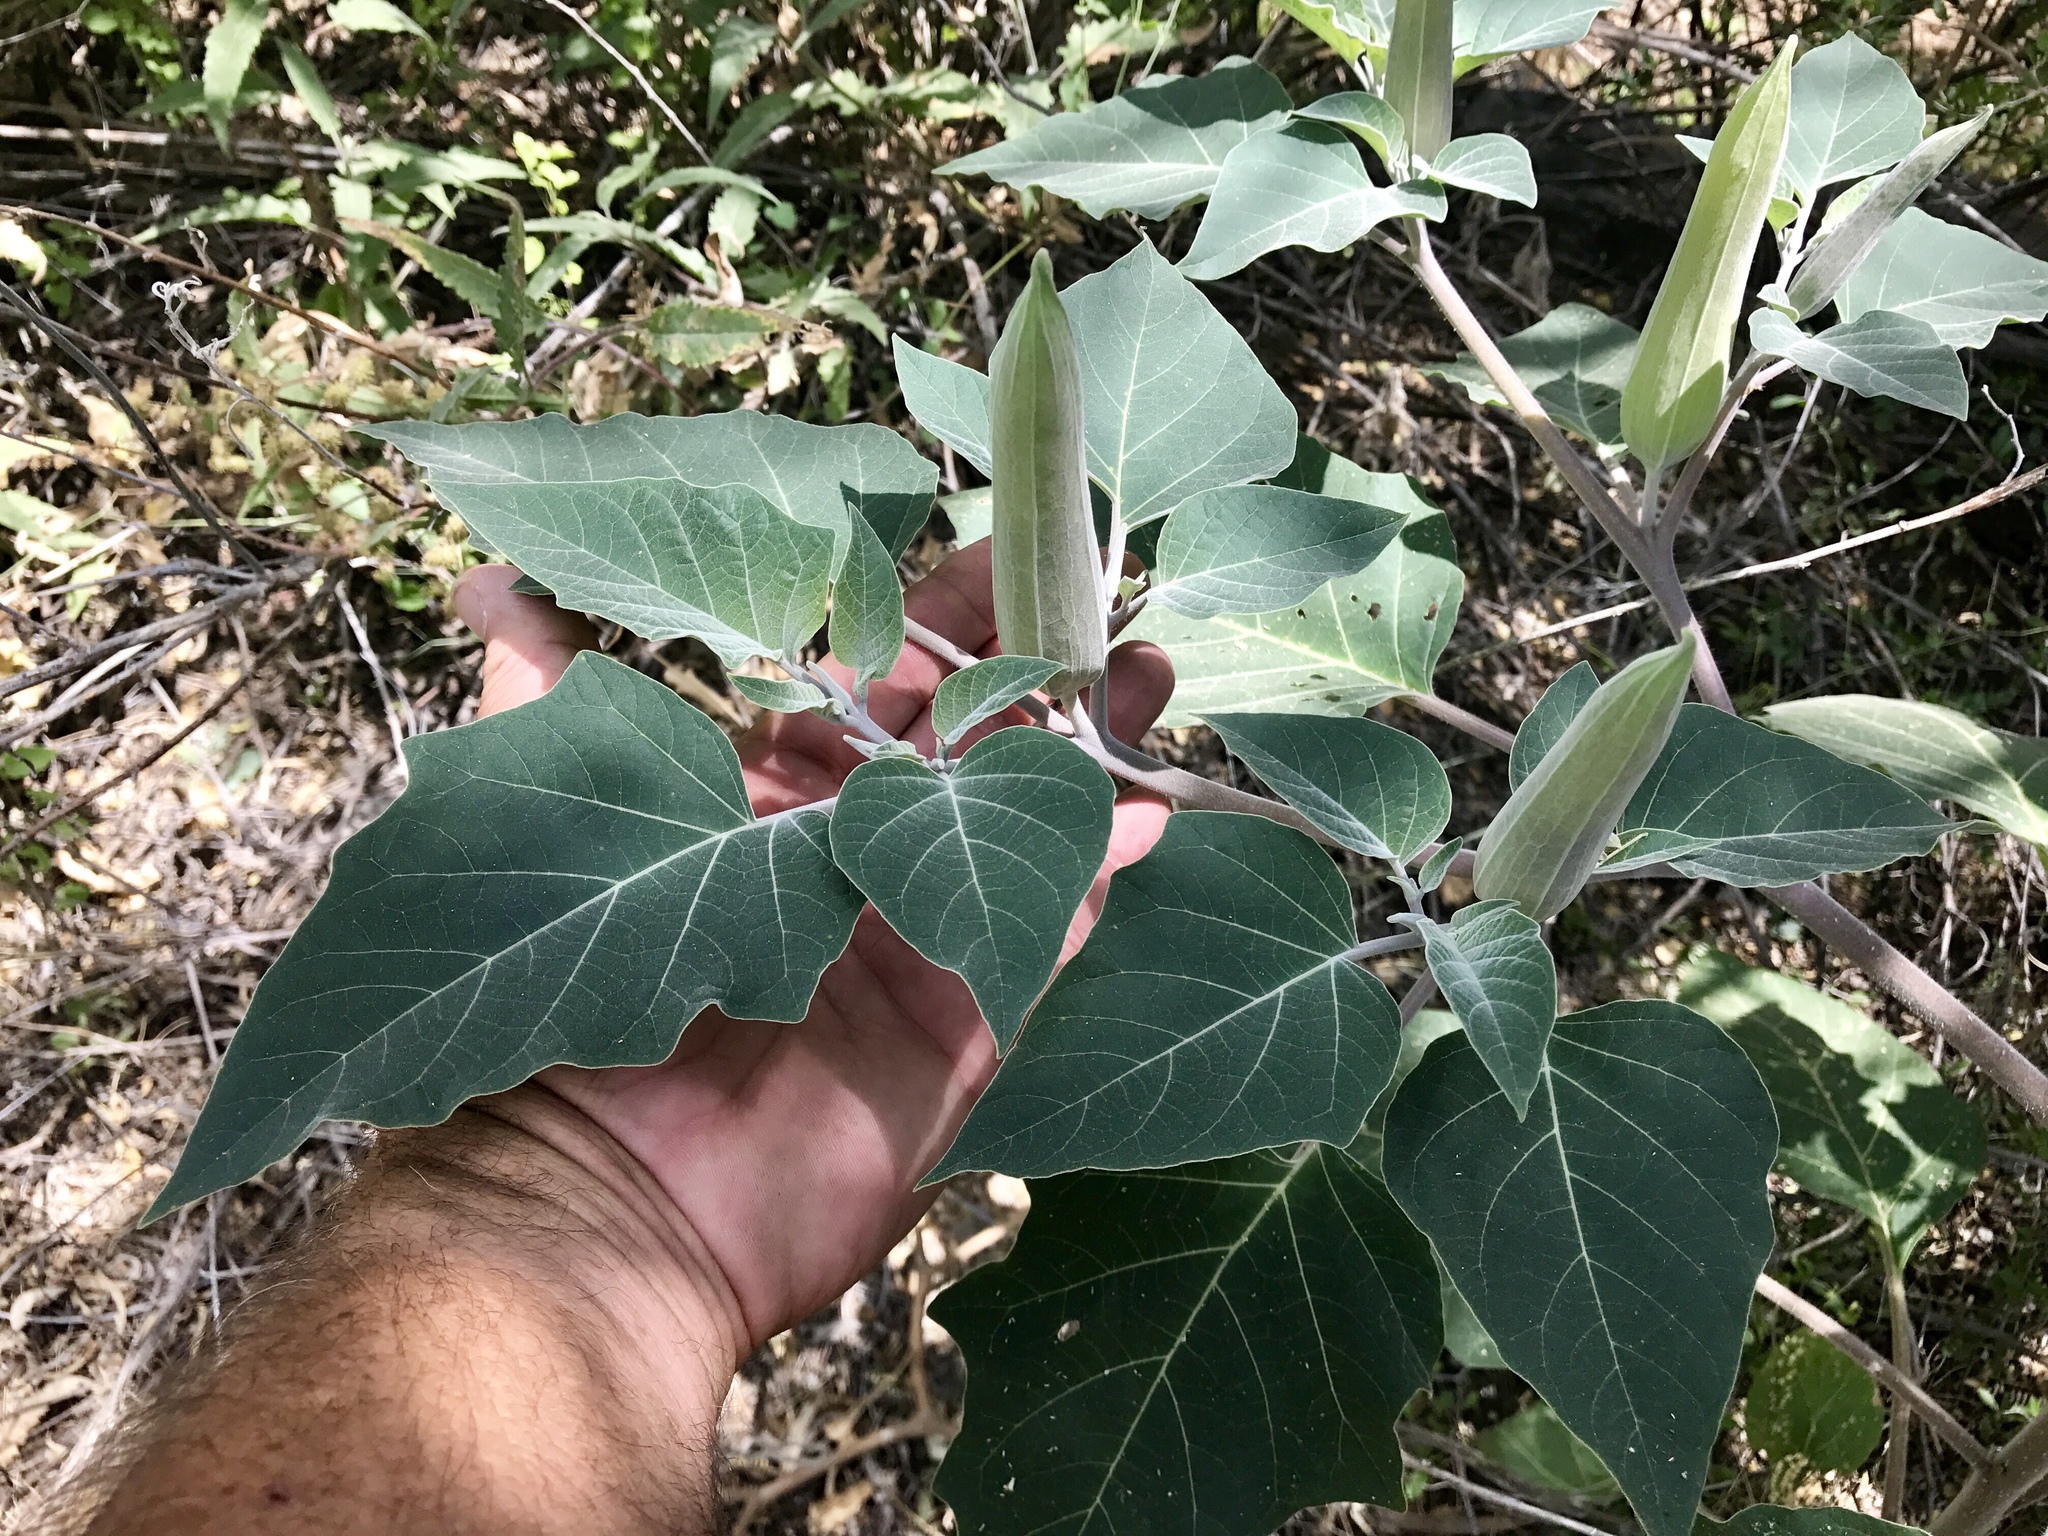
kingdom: Plantae
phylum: Tracheophyta
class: Magnoliopsida
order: Solanales
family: Solanaceae
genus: Datura
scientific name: Datura wrightii
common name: Sacred thorn-apple
